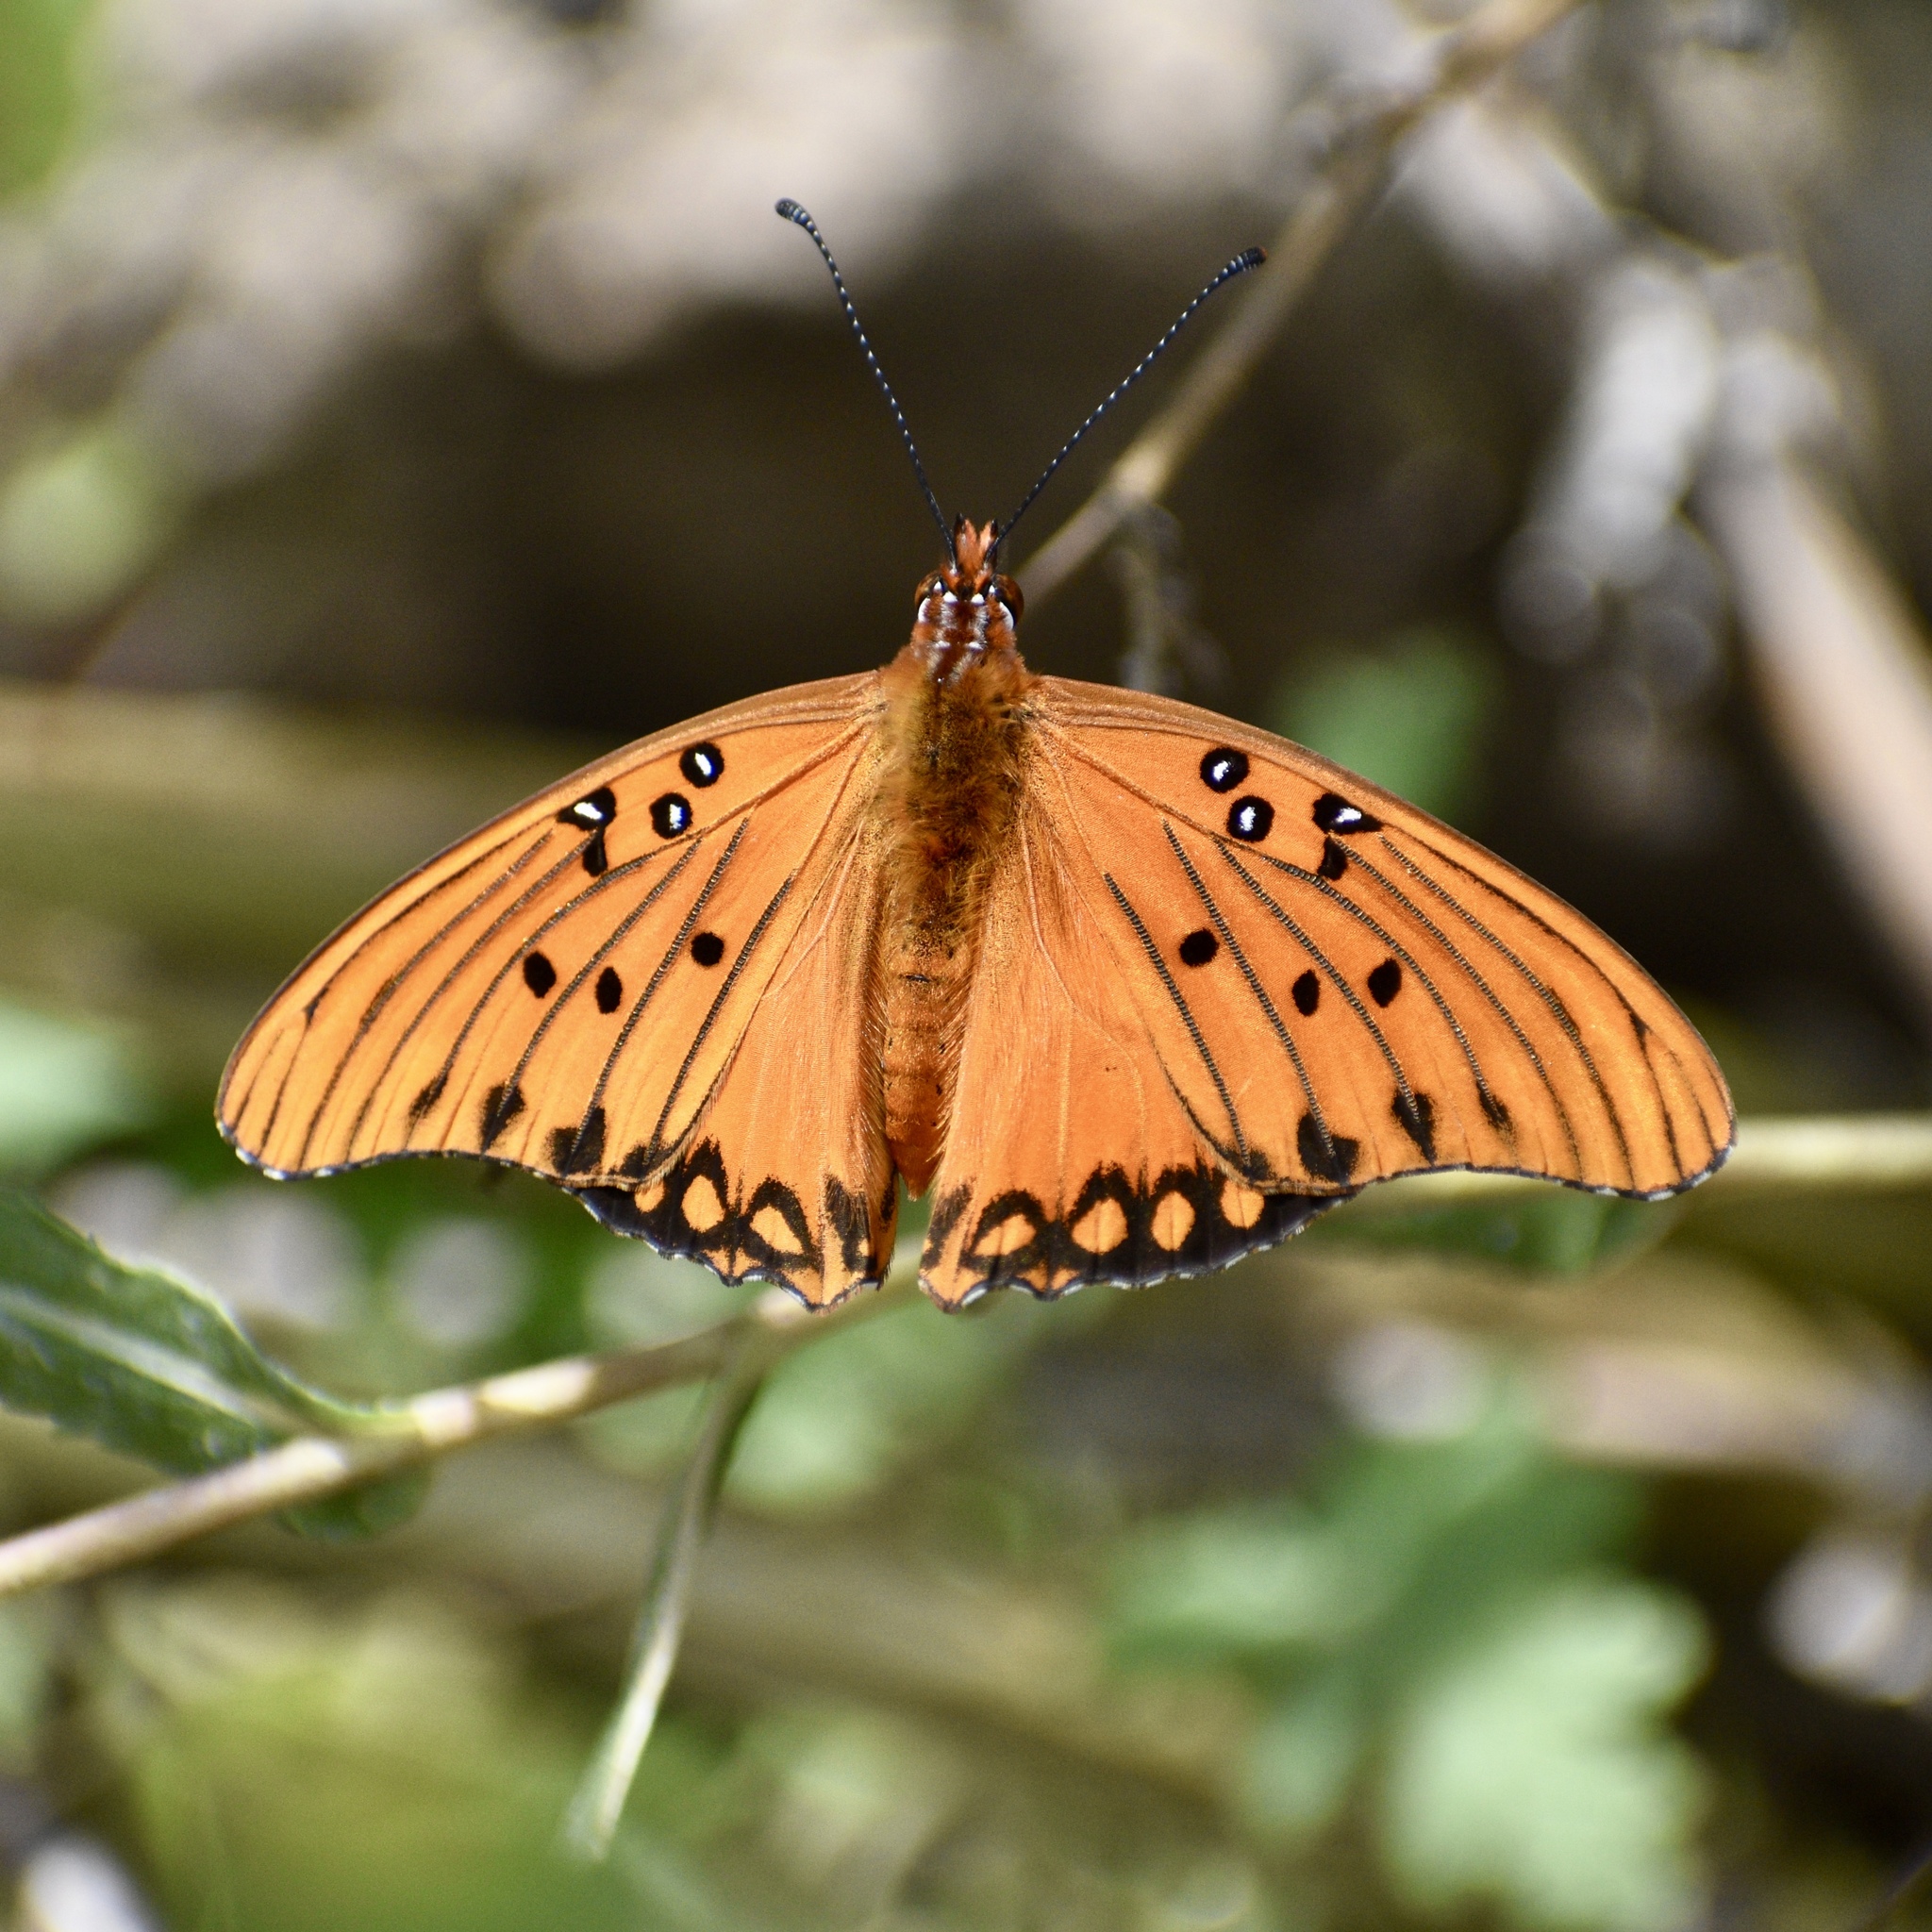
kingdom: Animalia
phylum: Arthropoda
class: Insecta
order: Lepidoptera
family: Nymphalidae
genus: Dione
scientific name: Dione vanillae
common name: Gulf fritillary
